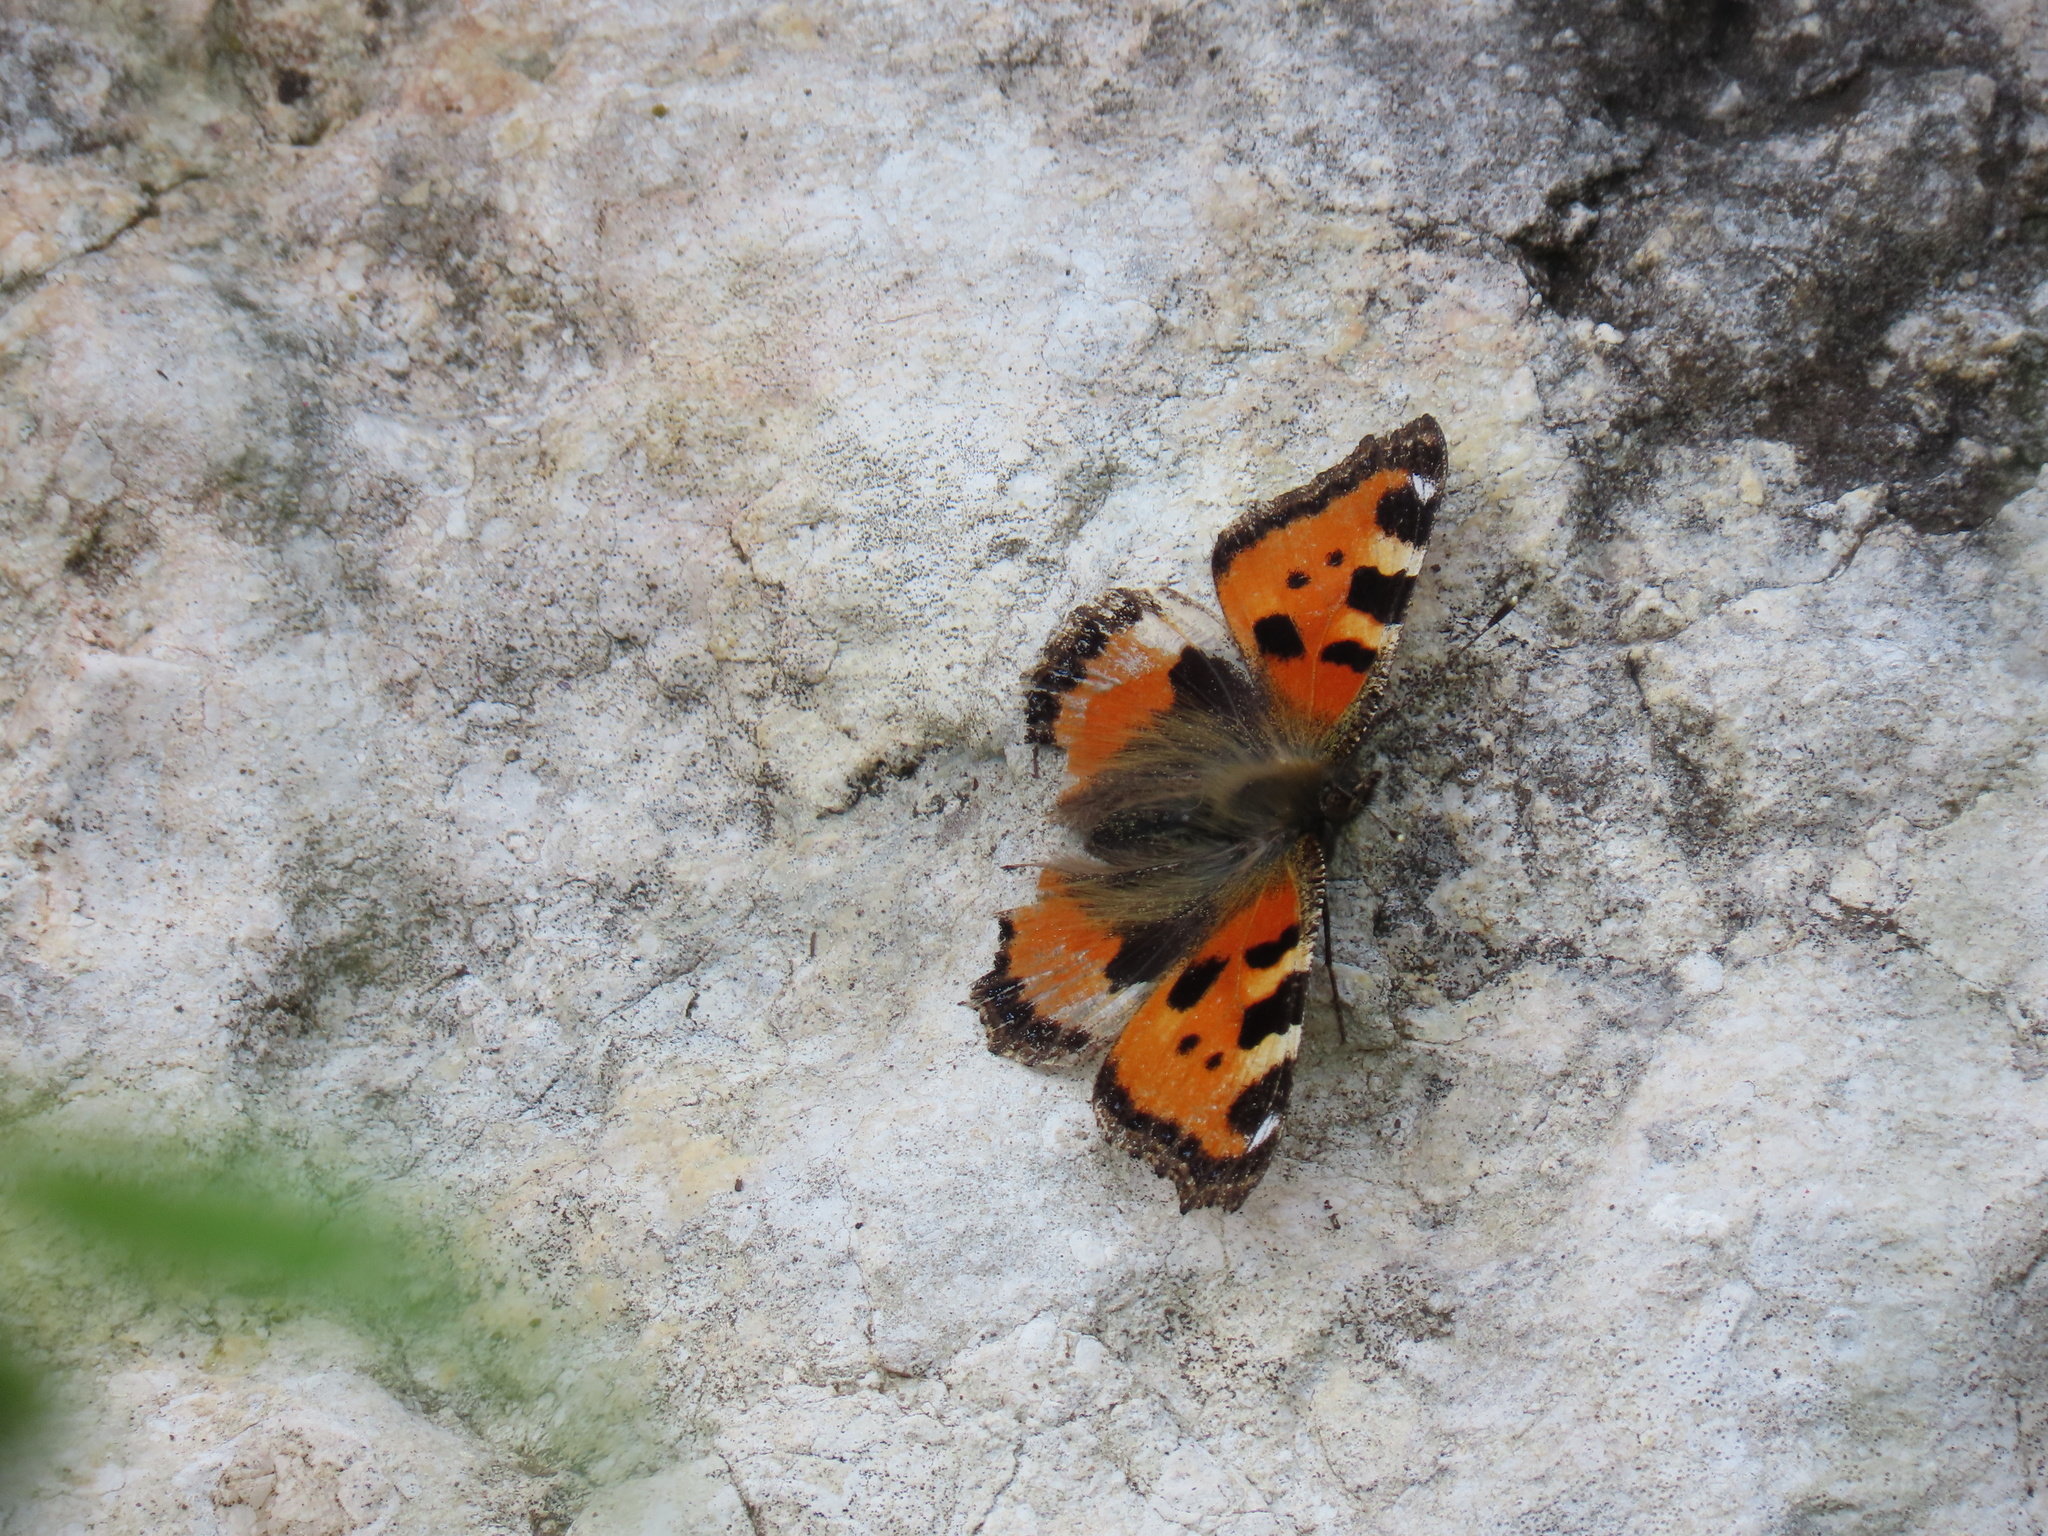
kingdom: Animalia
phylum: Arthropoda
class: Insecta
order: Lepidoptera
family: Nymphalidae
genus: Aglais
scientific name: Aglais urticae
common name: Small tortoiseshell
